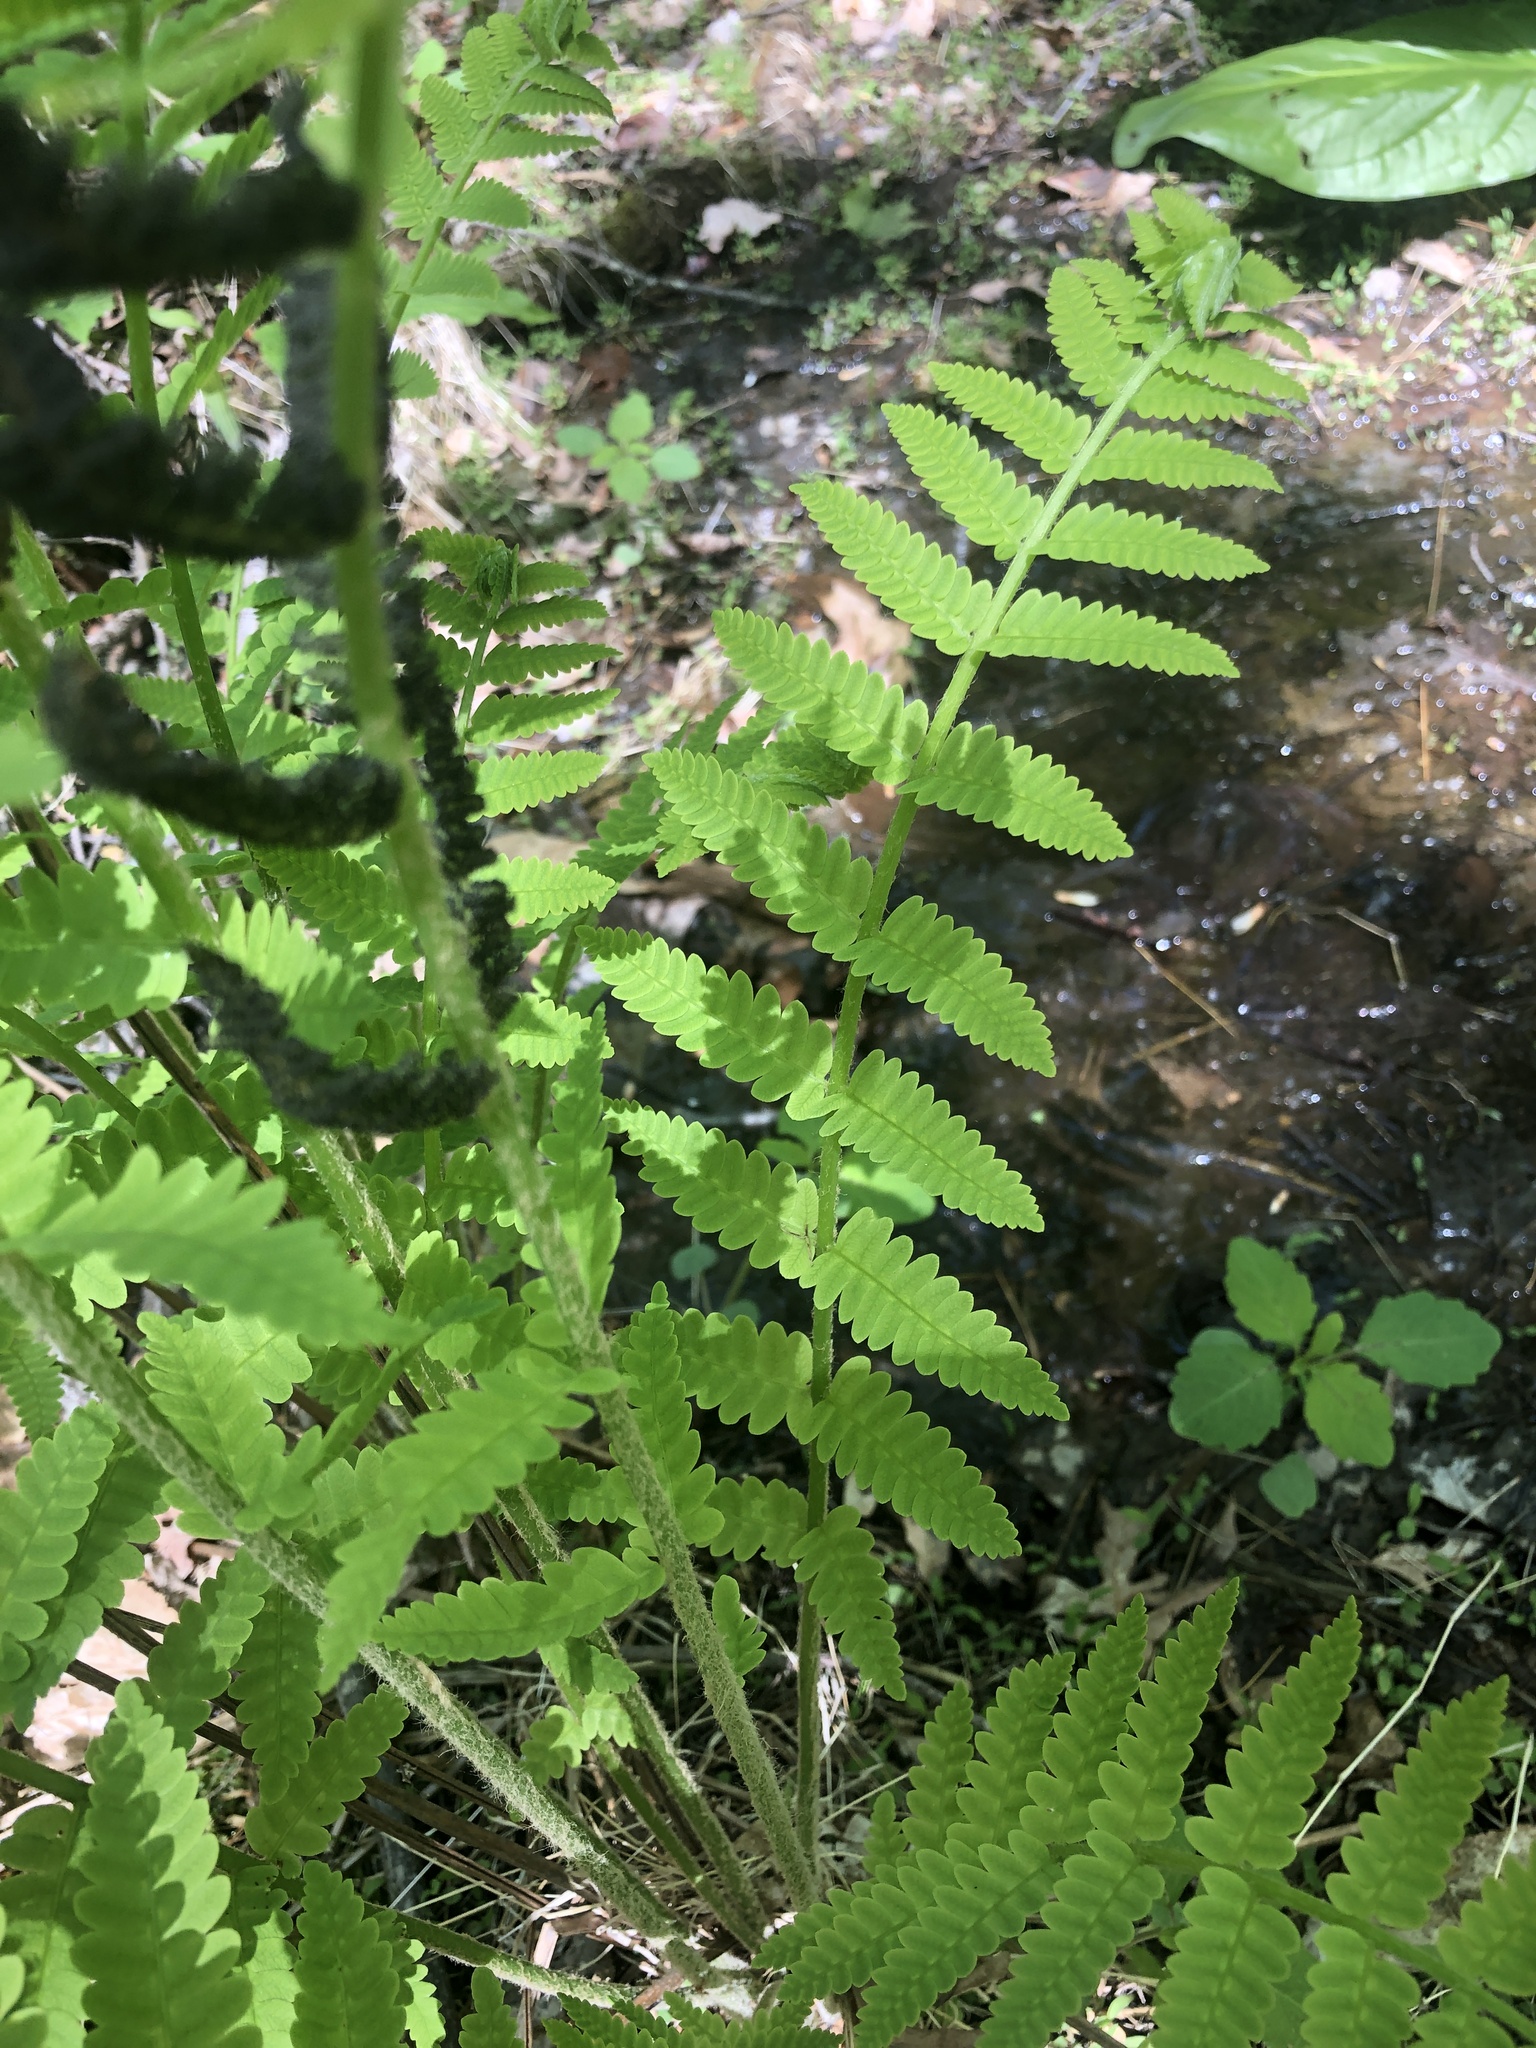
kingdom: Plantae
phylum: Tracheophyta
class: Polypodiopsida
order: Osmundales
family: Osmundaceae
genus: Claytosmunda
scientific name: Claytosmunda claytoniana
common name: Clayton's fern
